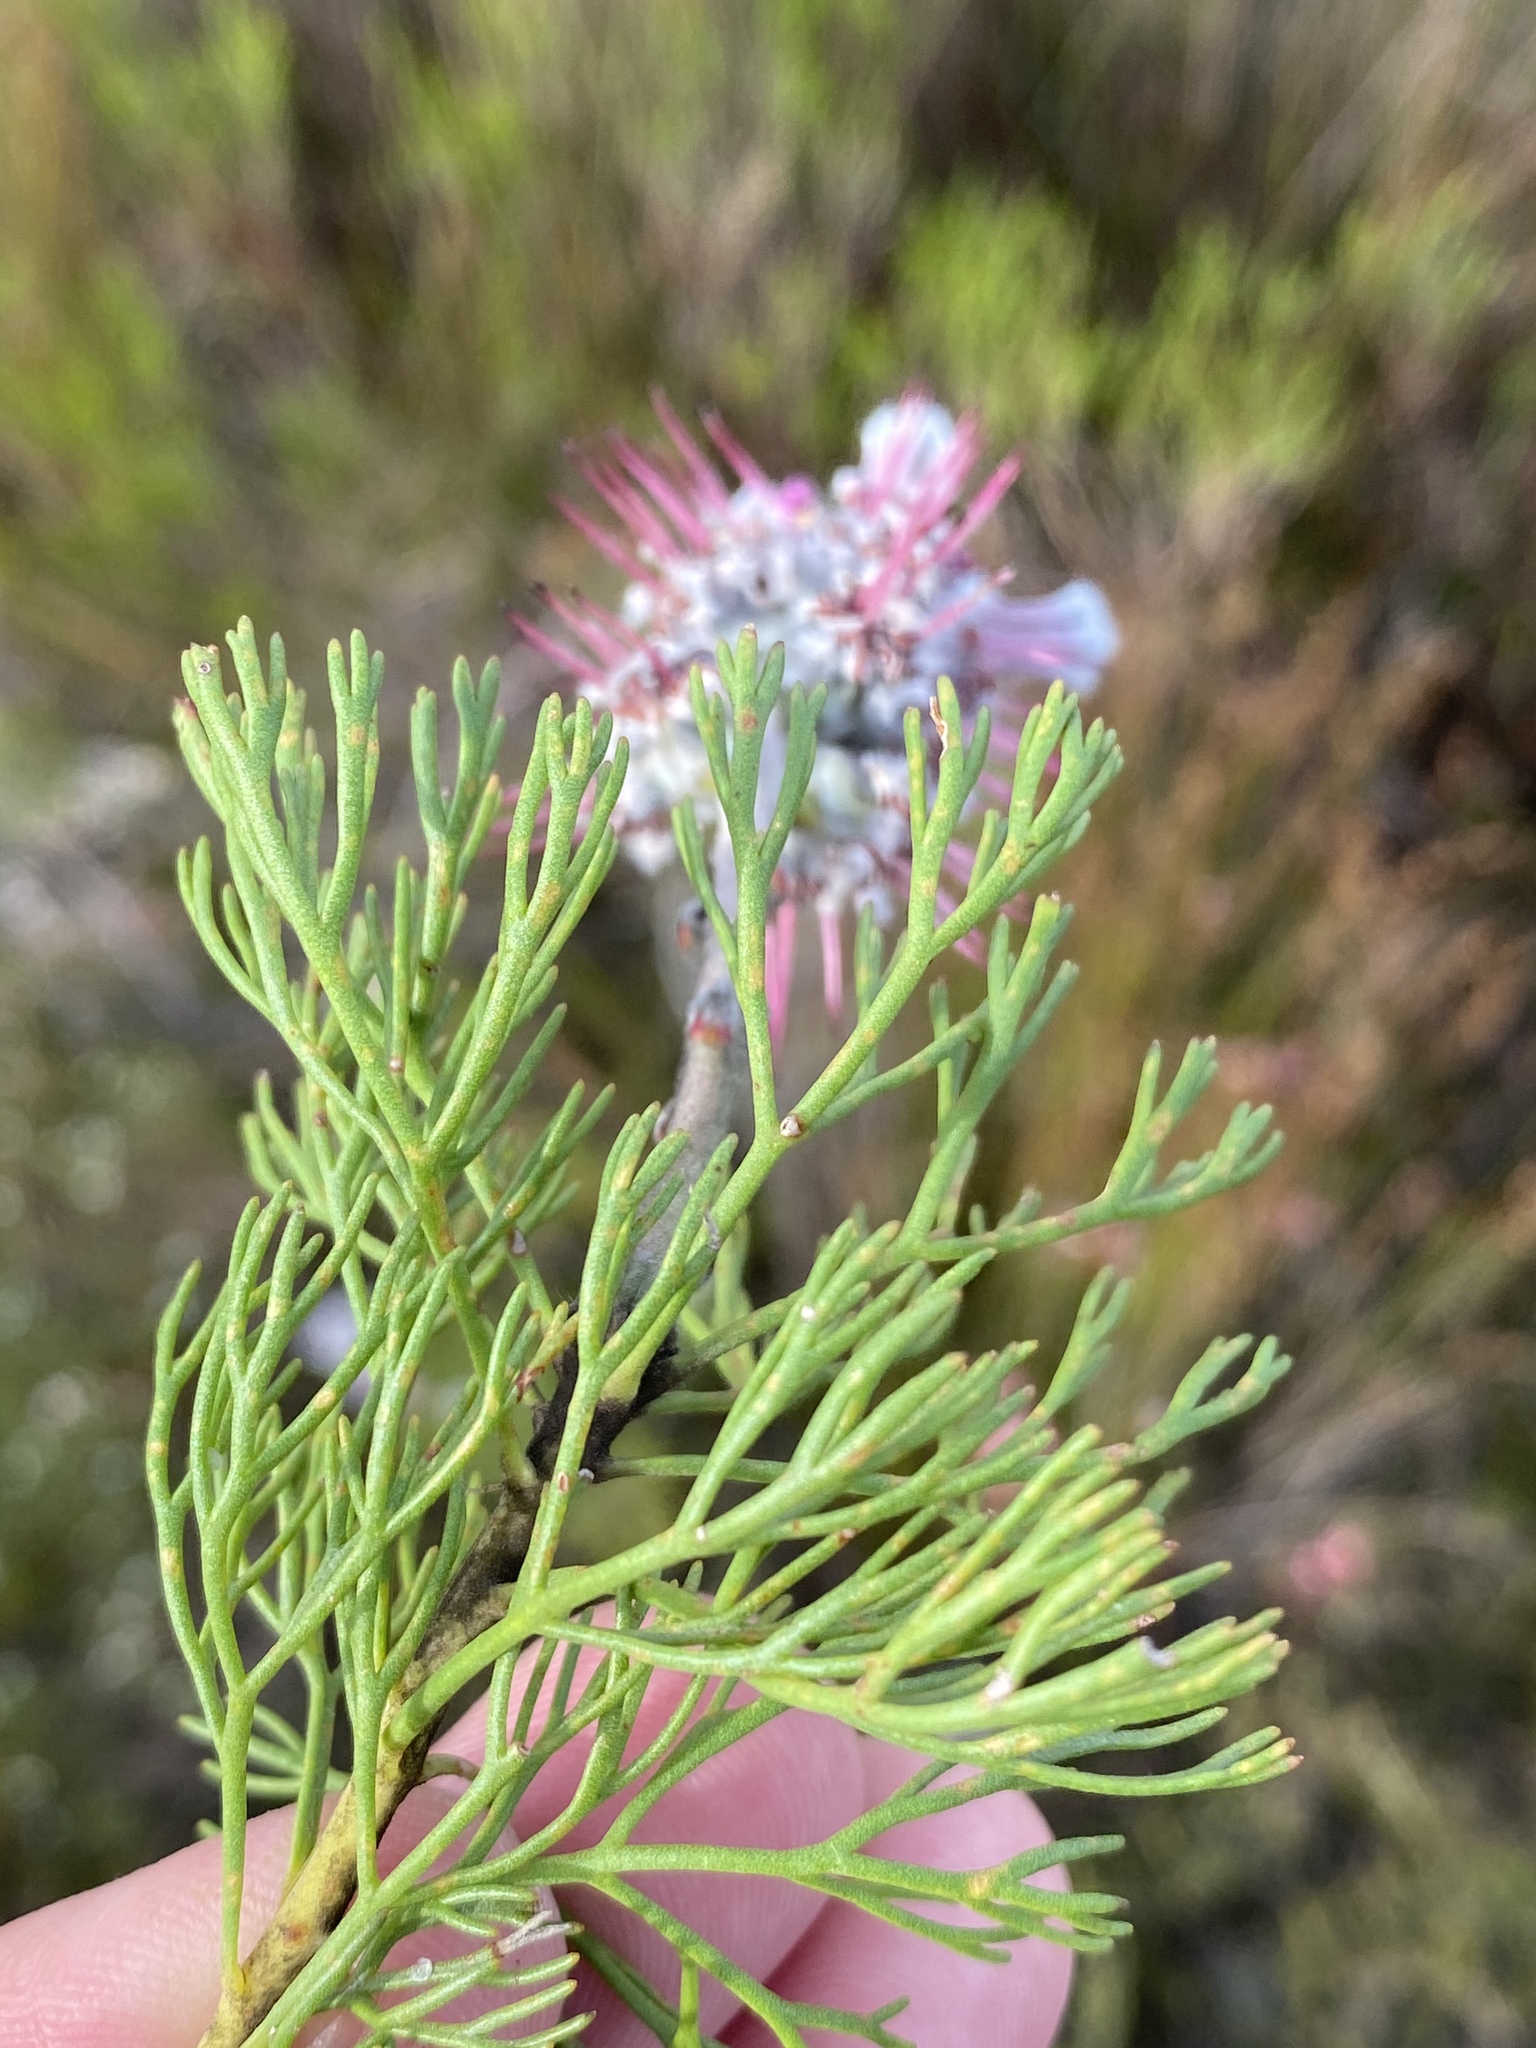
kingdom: Plantae
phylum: Tracheophyta
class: Magnoliopsida
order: Proteales
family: Proteaceae
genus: Paranomus
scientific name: Paranomus bolusii
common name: Overberg sceptre
